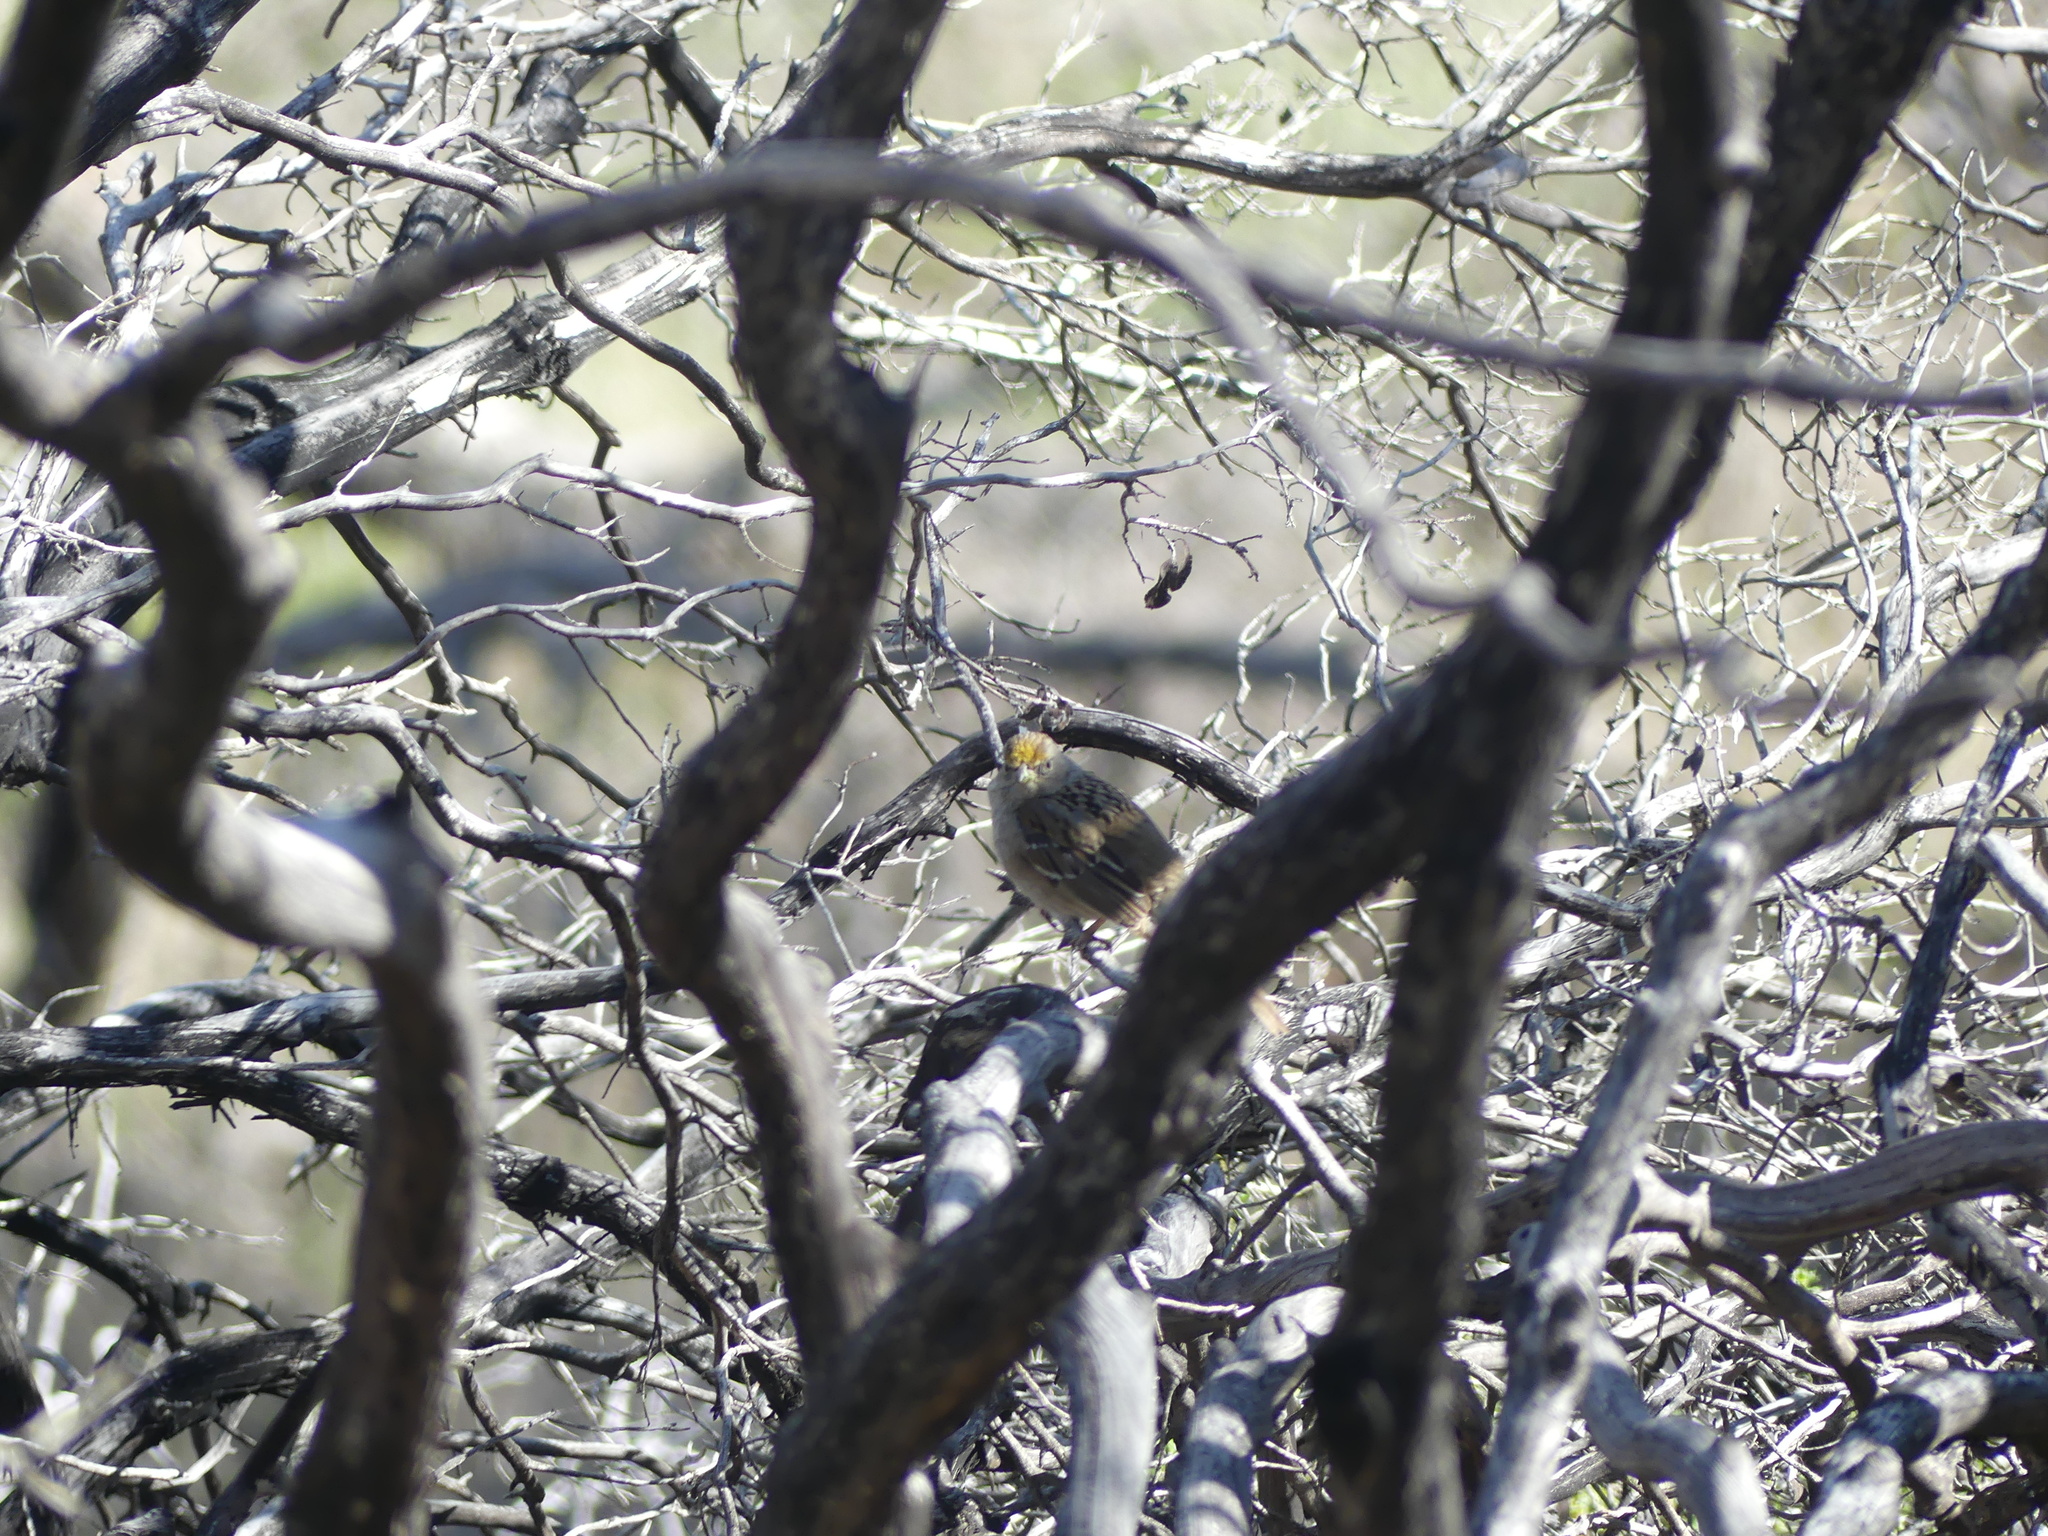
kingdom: Animalia
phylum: Chordata
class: Aves
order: Passeriformes
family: Passerellidae
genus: Zonotrichia
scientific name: Zonotrichia atricapilla
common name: Golden-crowned sparrow
